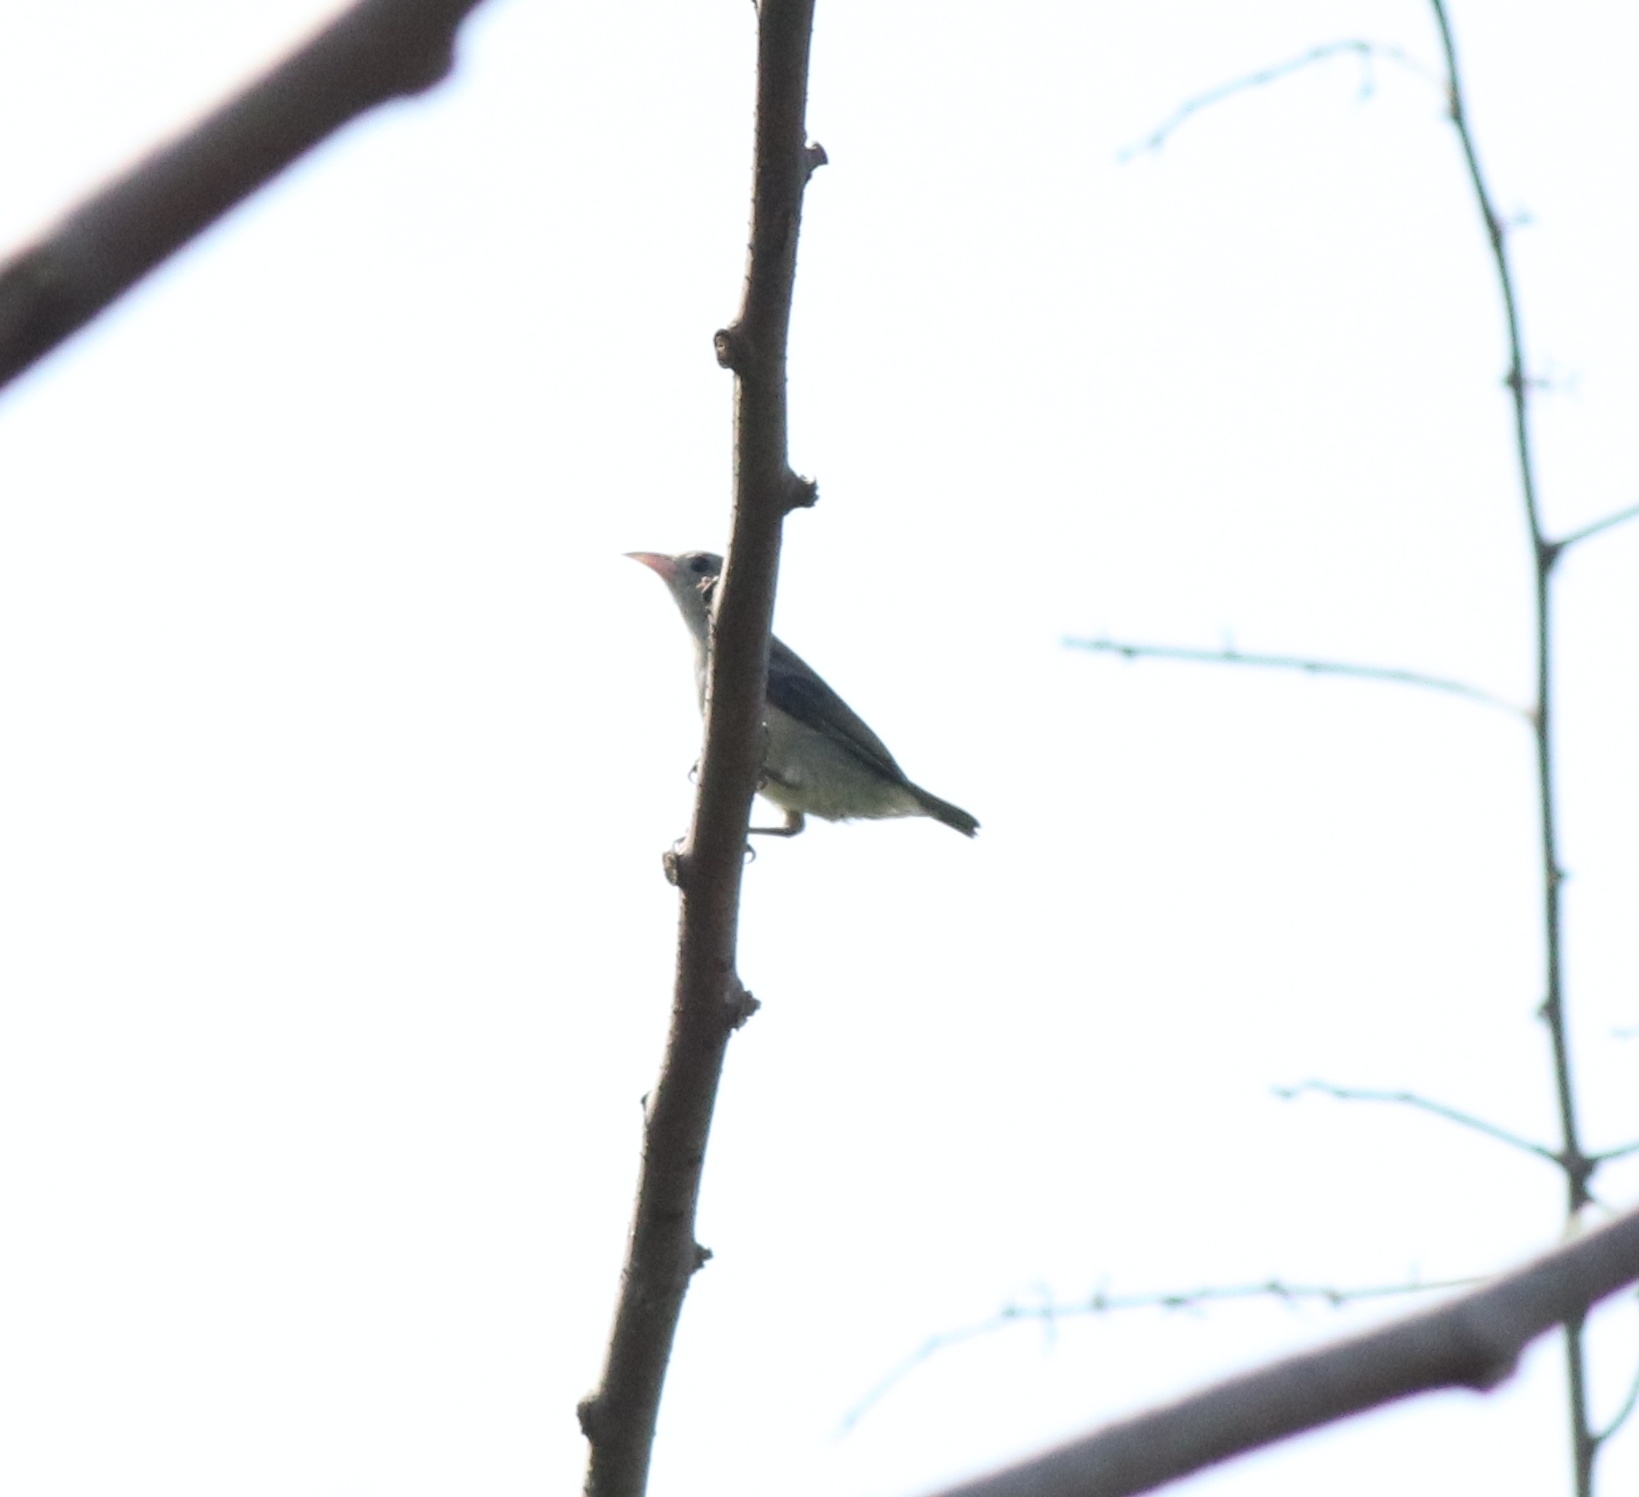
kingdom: Animalia
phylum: Chordata
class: Aves
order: Passeriformes
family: Dicaeidae
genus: Dicaeum
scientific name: Dicaeum erythrorhynchos
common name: Pale-billed flowerpecker
